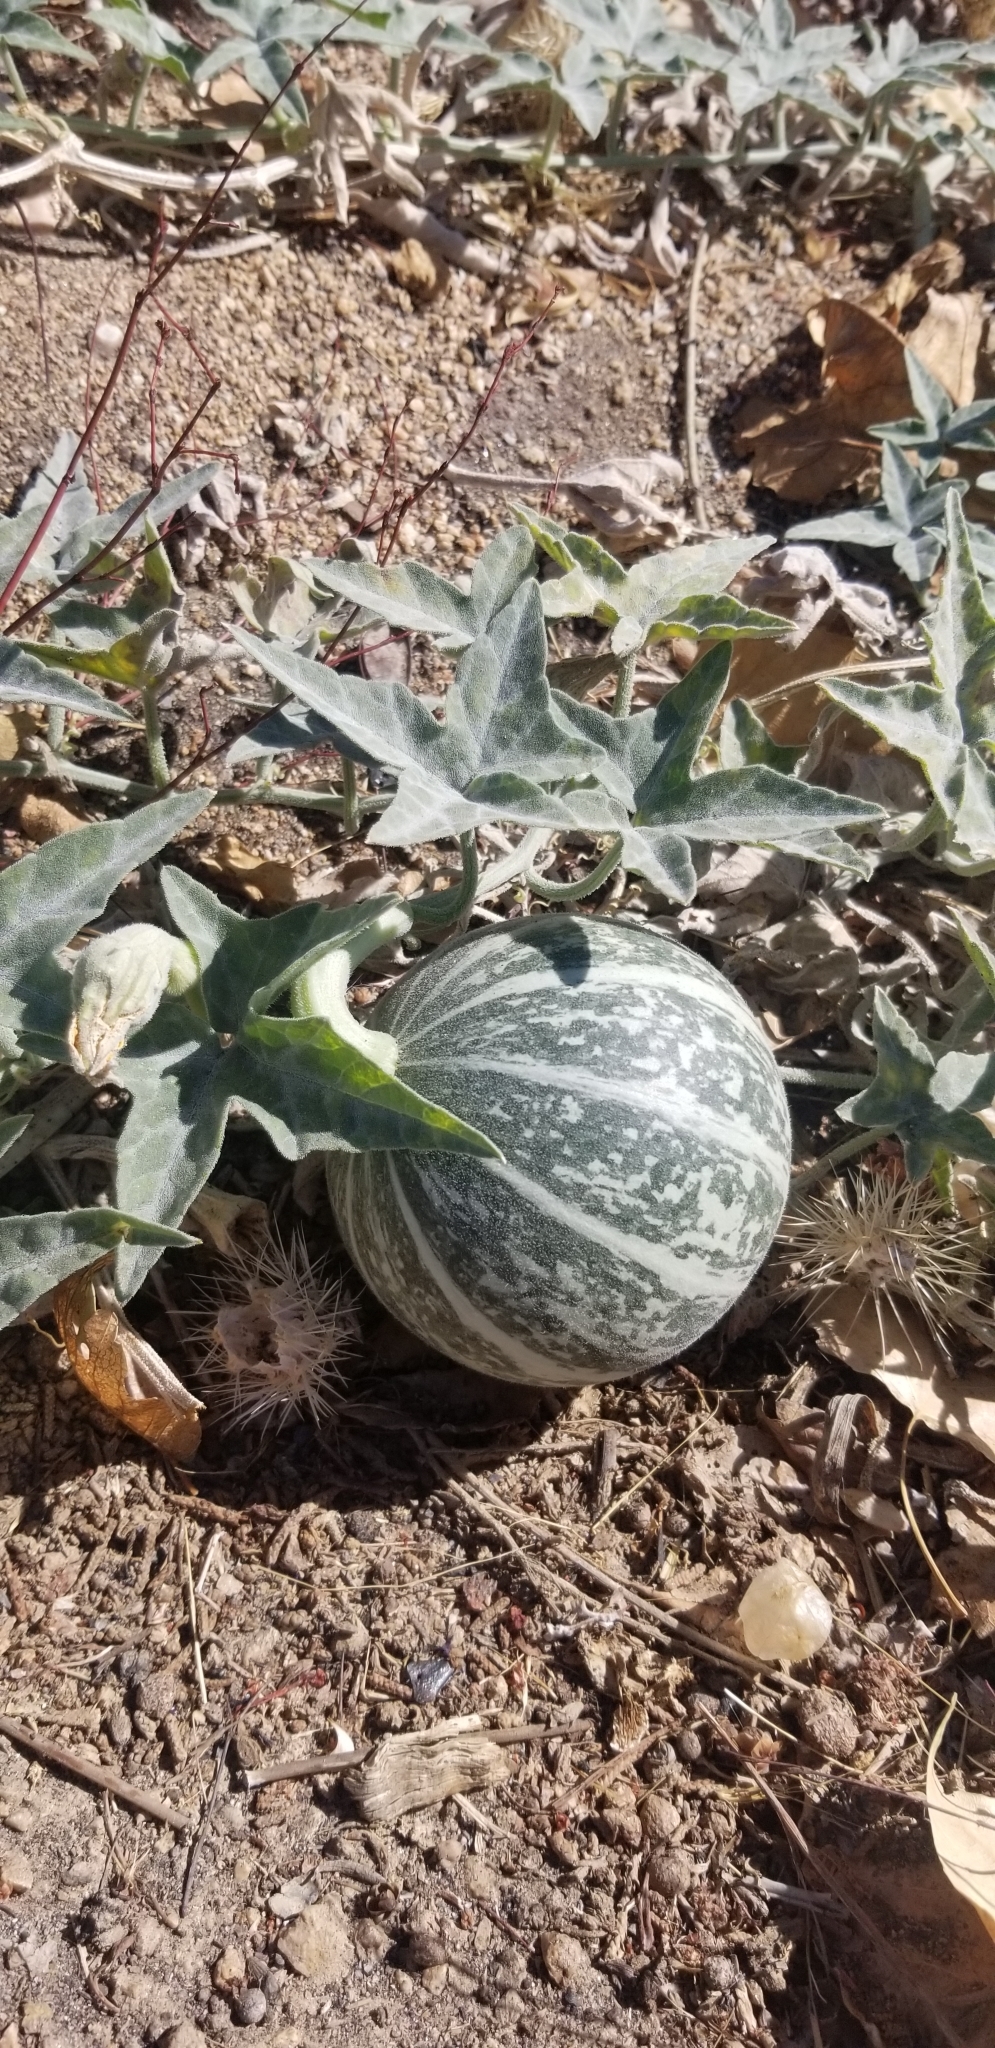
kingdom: Plantae
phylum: Tracheophyta
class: Magnoliopsida
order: Cucurbitales
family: Cucurbitaceae
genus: Cucurbita
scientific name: Cucurbita palmata
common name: Coyote-melon
